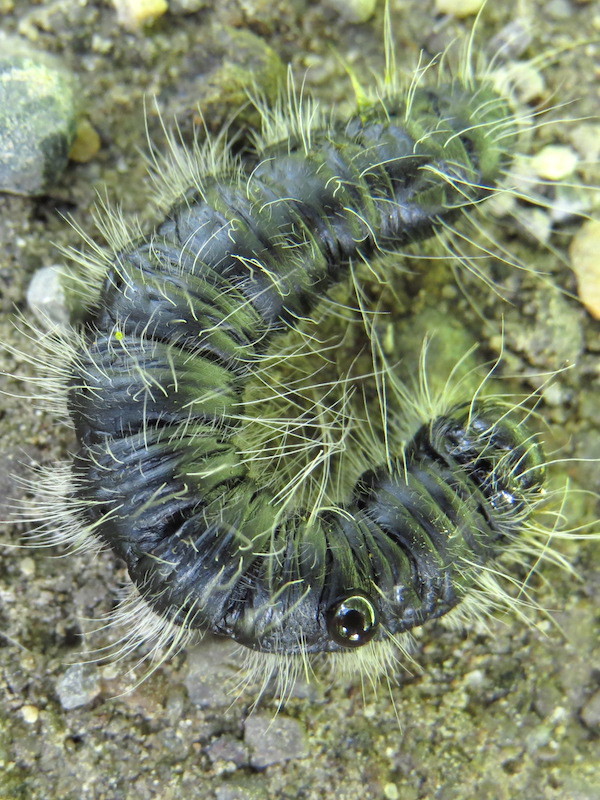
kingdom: Animalia
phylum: Arthropoda
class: Insecta
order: Lepidoptera
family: Notodontidae
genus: Datana
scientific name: Datana integerrima
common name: Walnut caterpillar
